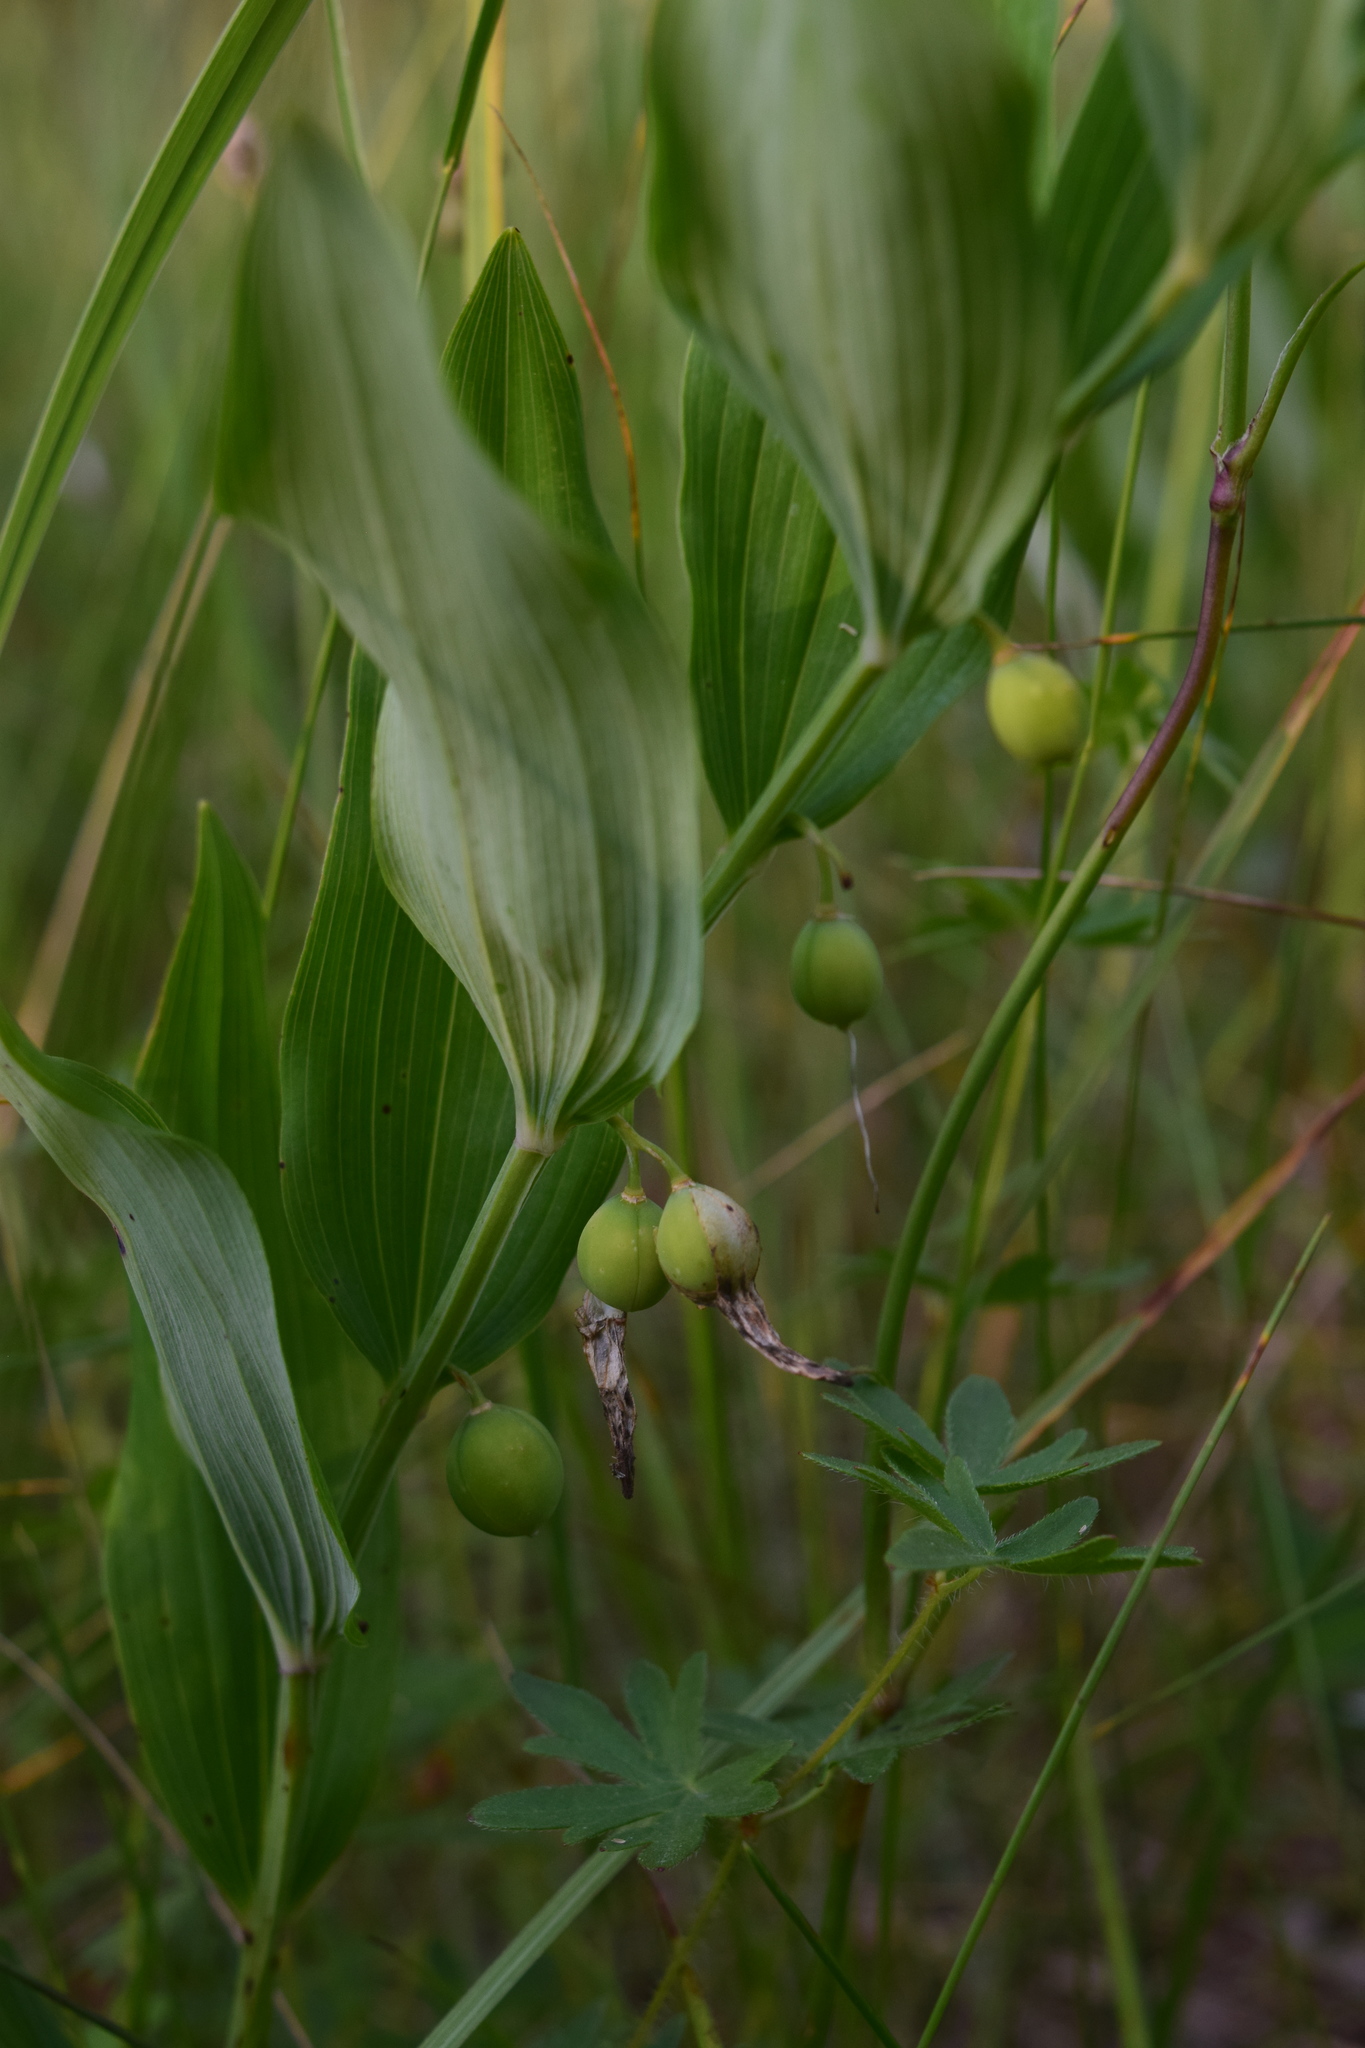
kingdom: Plantae
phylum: Tracheophyta
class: Liliopsida
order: Asparagales
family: Asparagaceae
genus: Polygonatum
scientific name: Polygonatum odoratum
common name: Angular solomon's-seal
